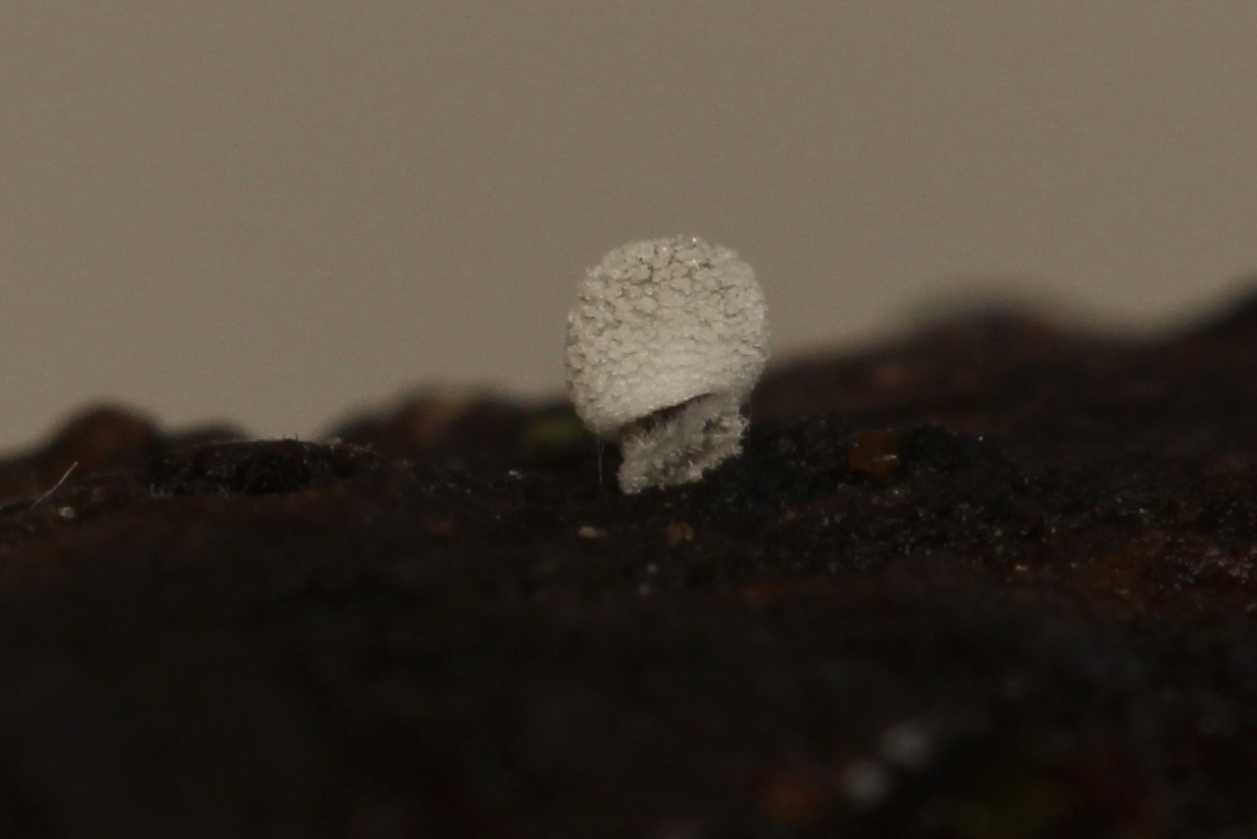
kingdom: Fungi
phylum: Basidiomycota
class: Agaricomycetes
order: Agaricales
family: Mycenaceae
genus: Mycena
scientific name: Mycena
